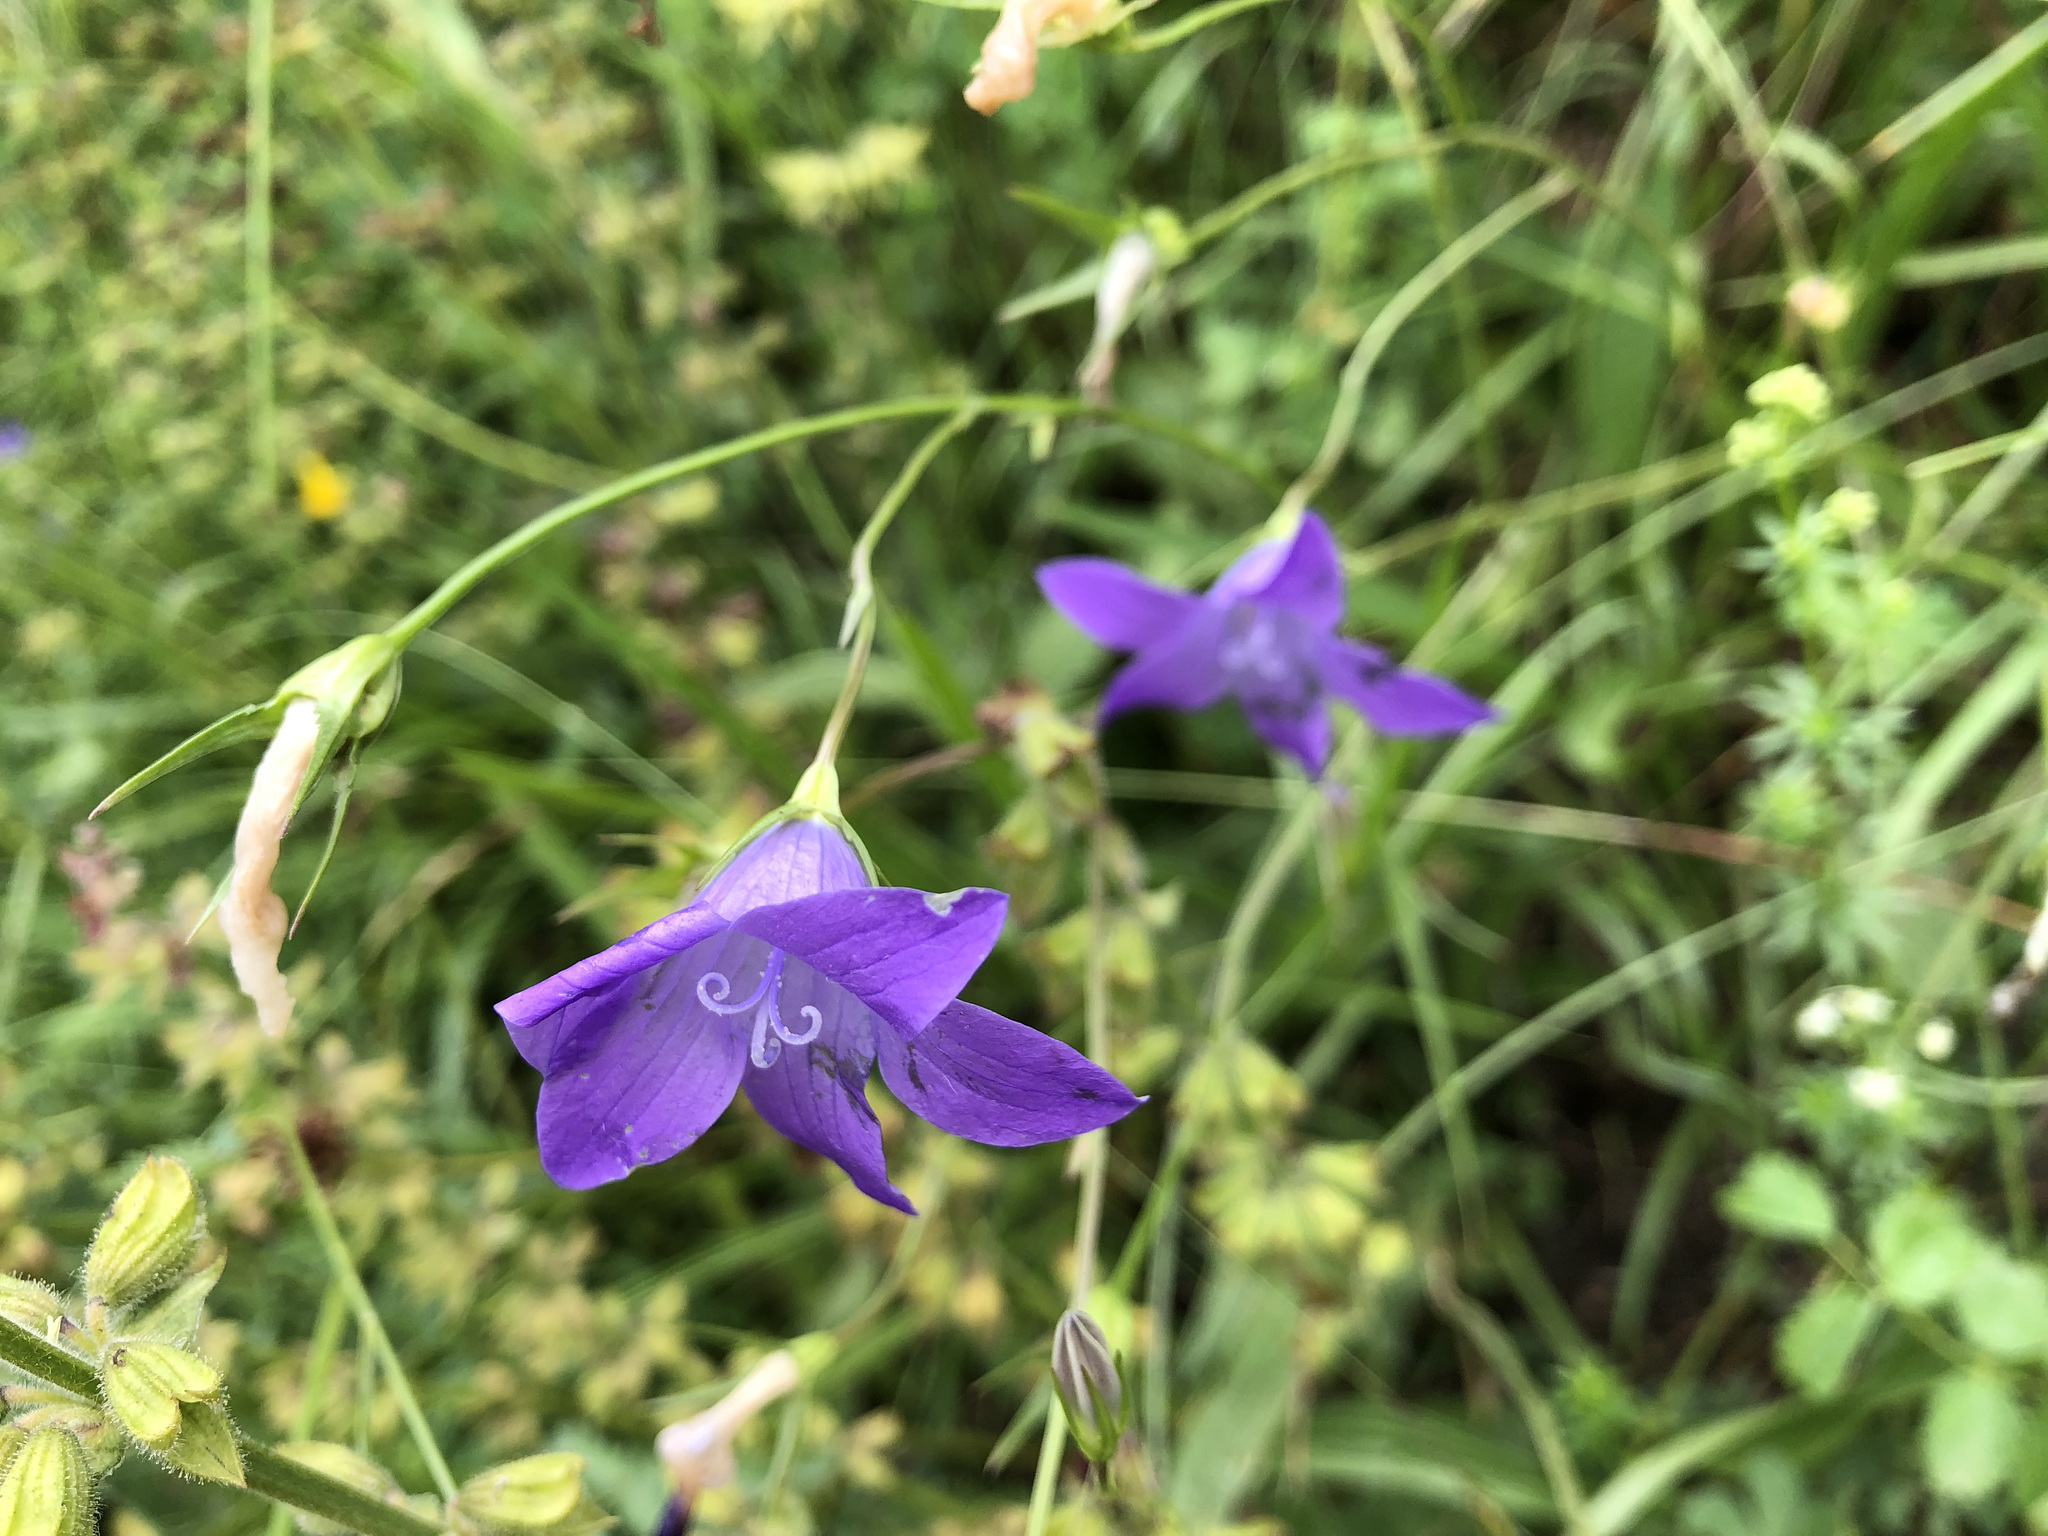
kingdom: Plantae
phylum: Tracheophyta
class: Magnoliopsida
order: Asterales
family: Campanulaceae
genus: Campanula
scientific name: Campanula patula
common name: Spreading bellflower
